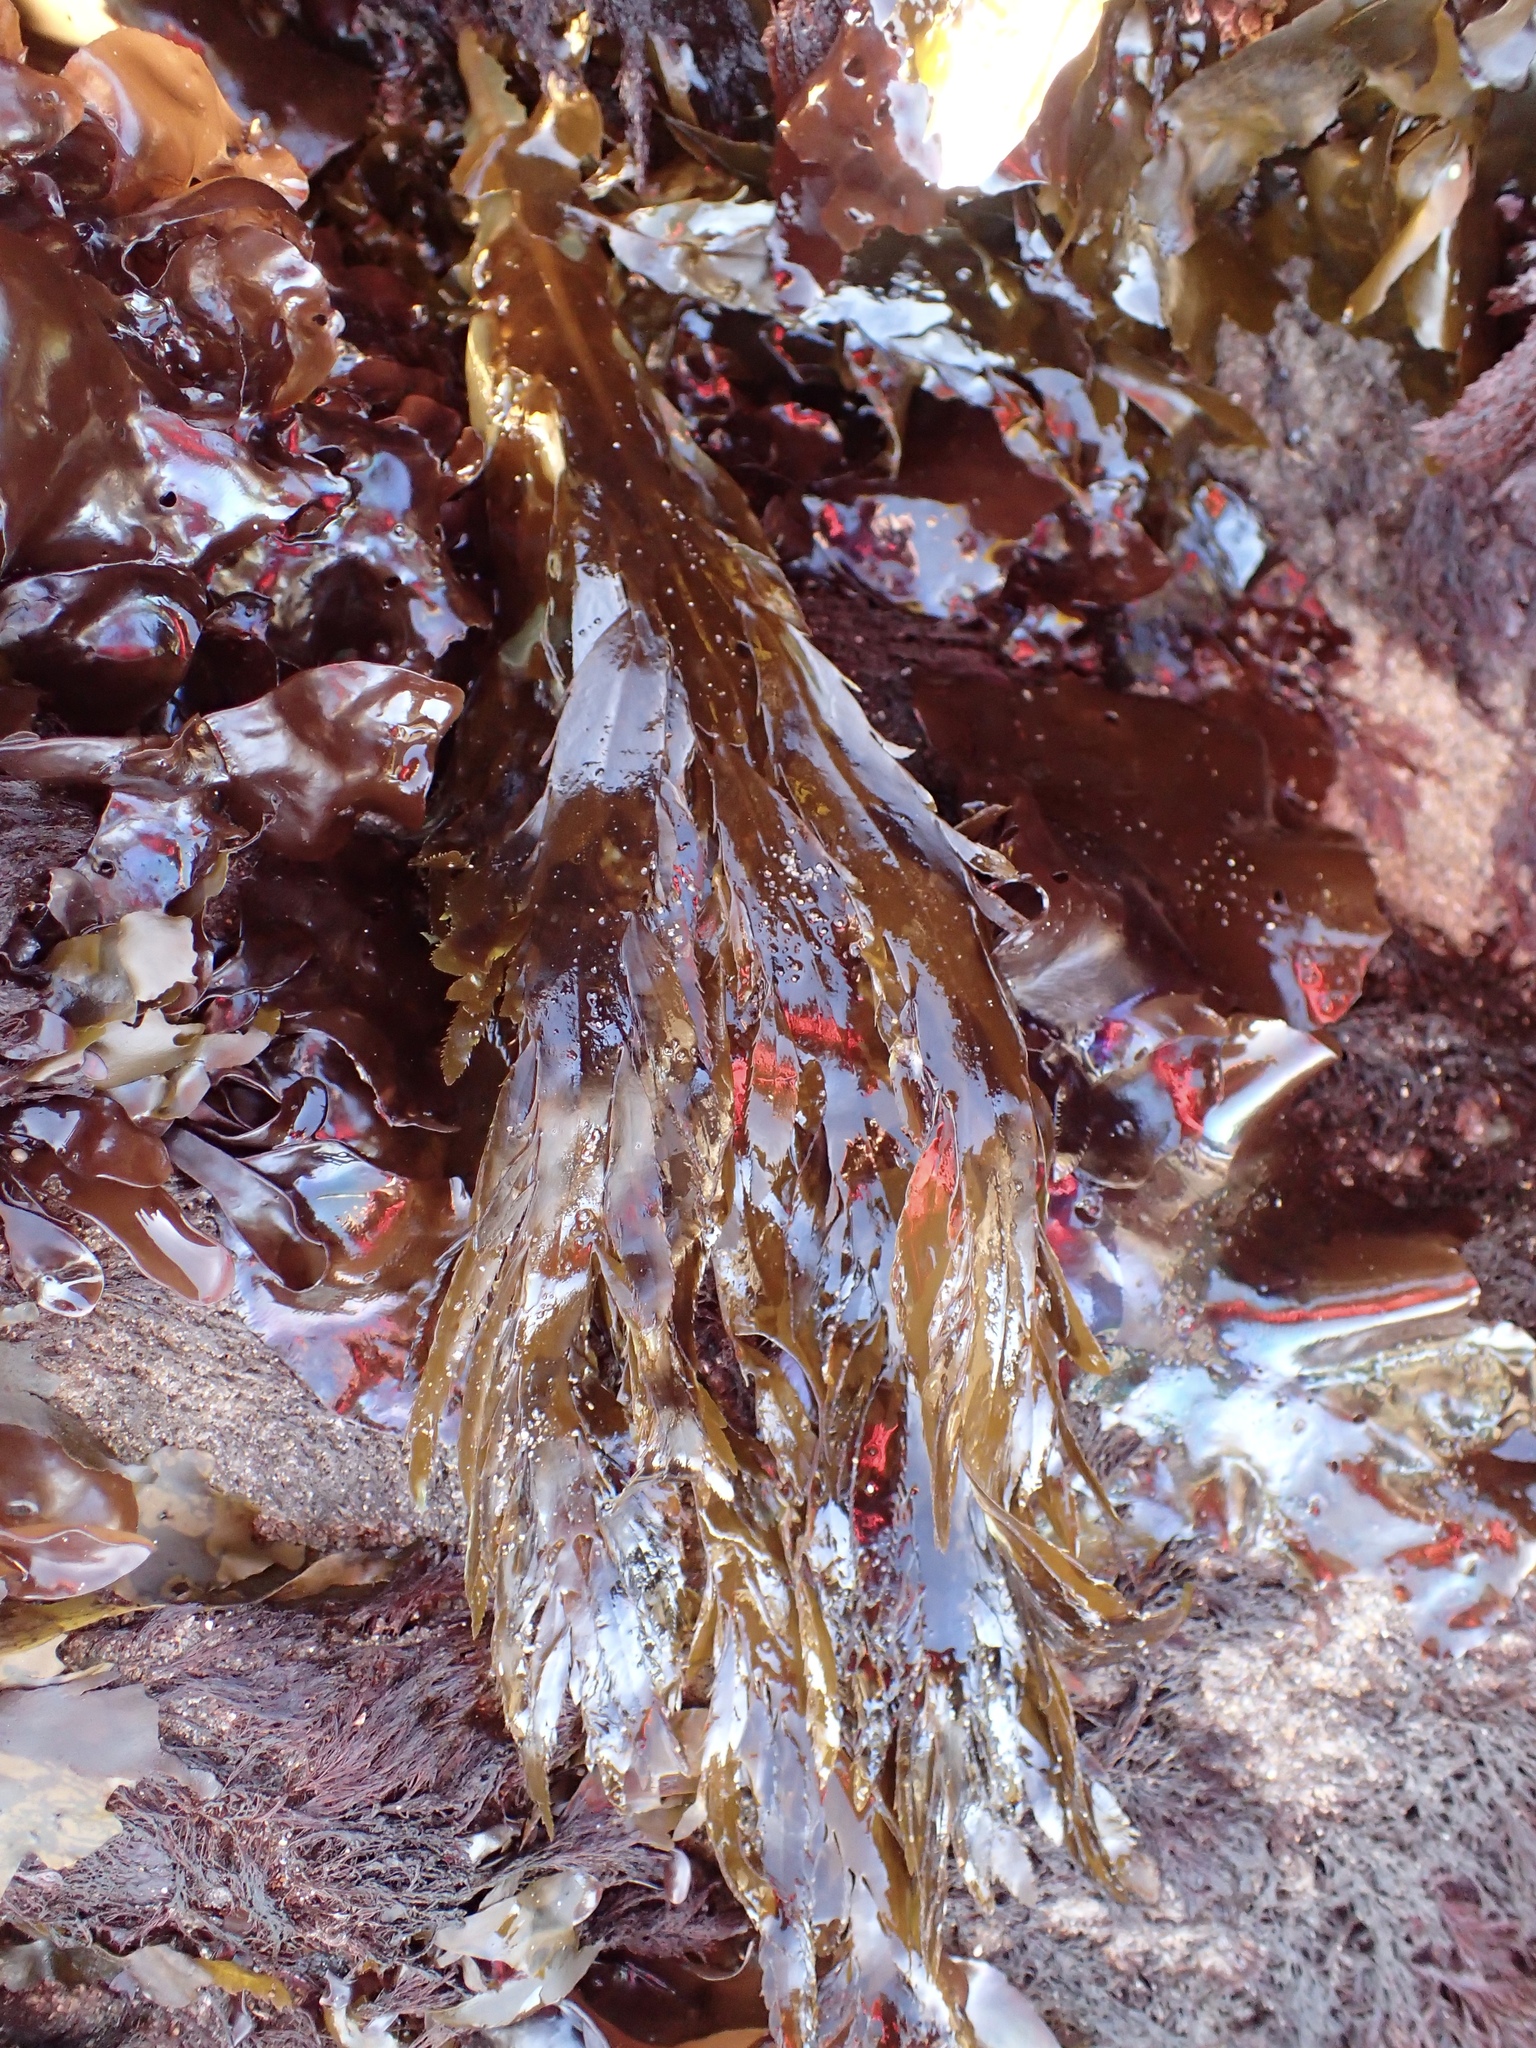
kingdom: Chromista
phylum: Ochrophyta
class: Phaeophyceae
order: Desmarestiales
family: Desmarestiaceae
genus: Desmarestia
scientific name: Desmarestia ligulata
